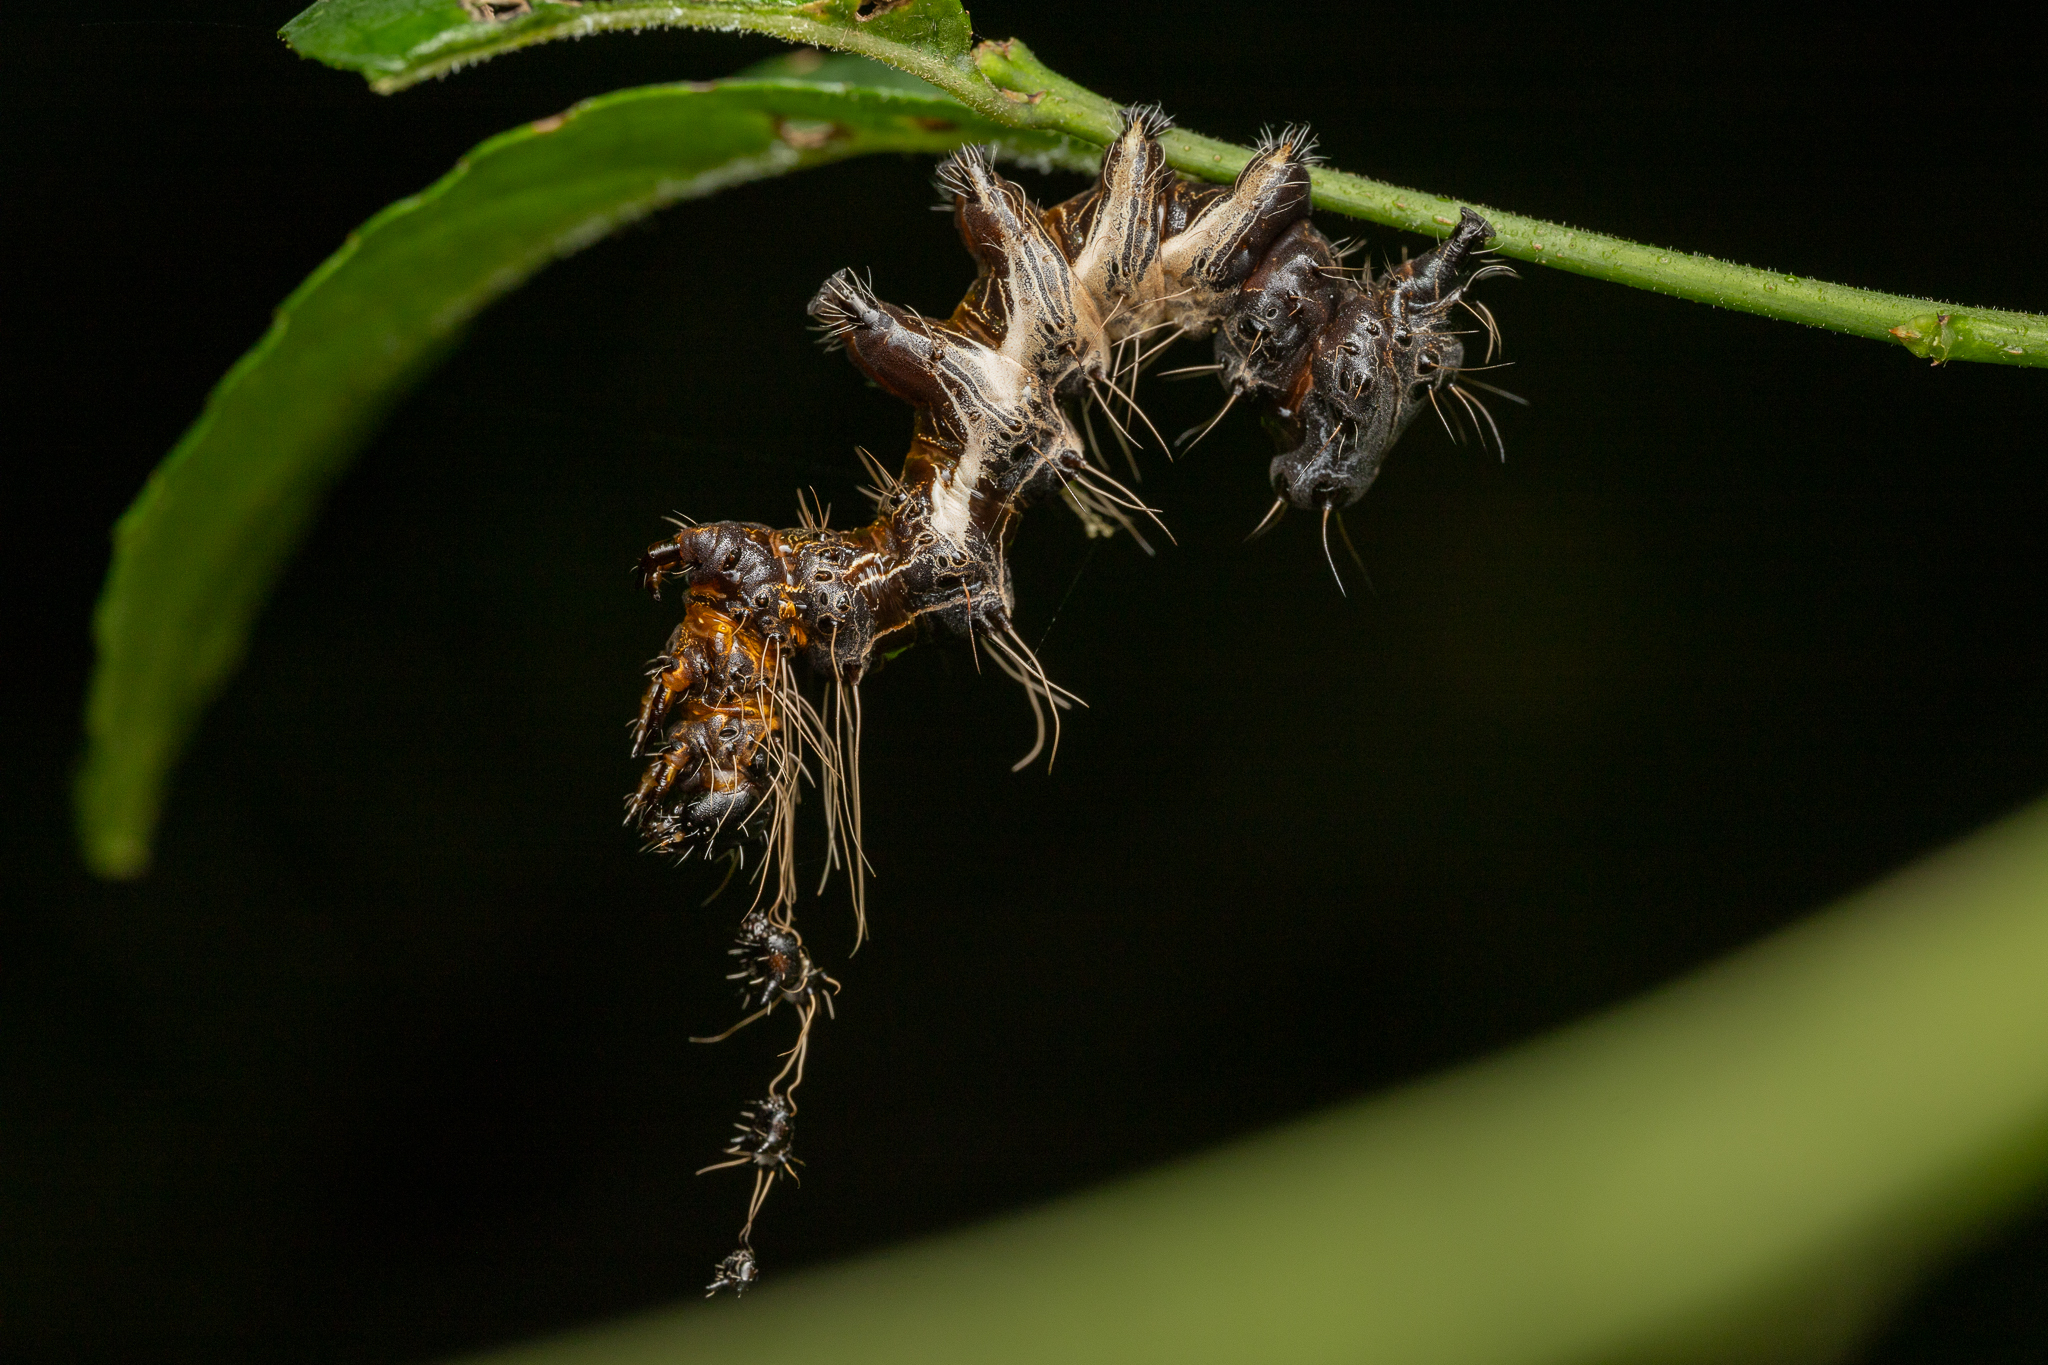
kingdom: Animalia
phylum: Arthropoda
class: Insecta
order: Lepidoptera
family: Noctuidae
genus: Harrisimemna
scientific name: Harrisimemna trisignata
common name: Harris threespot
